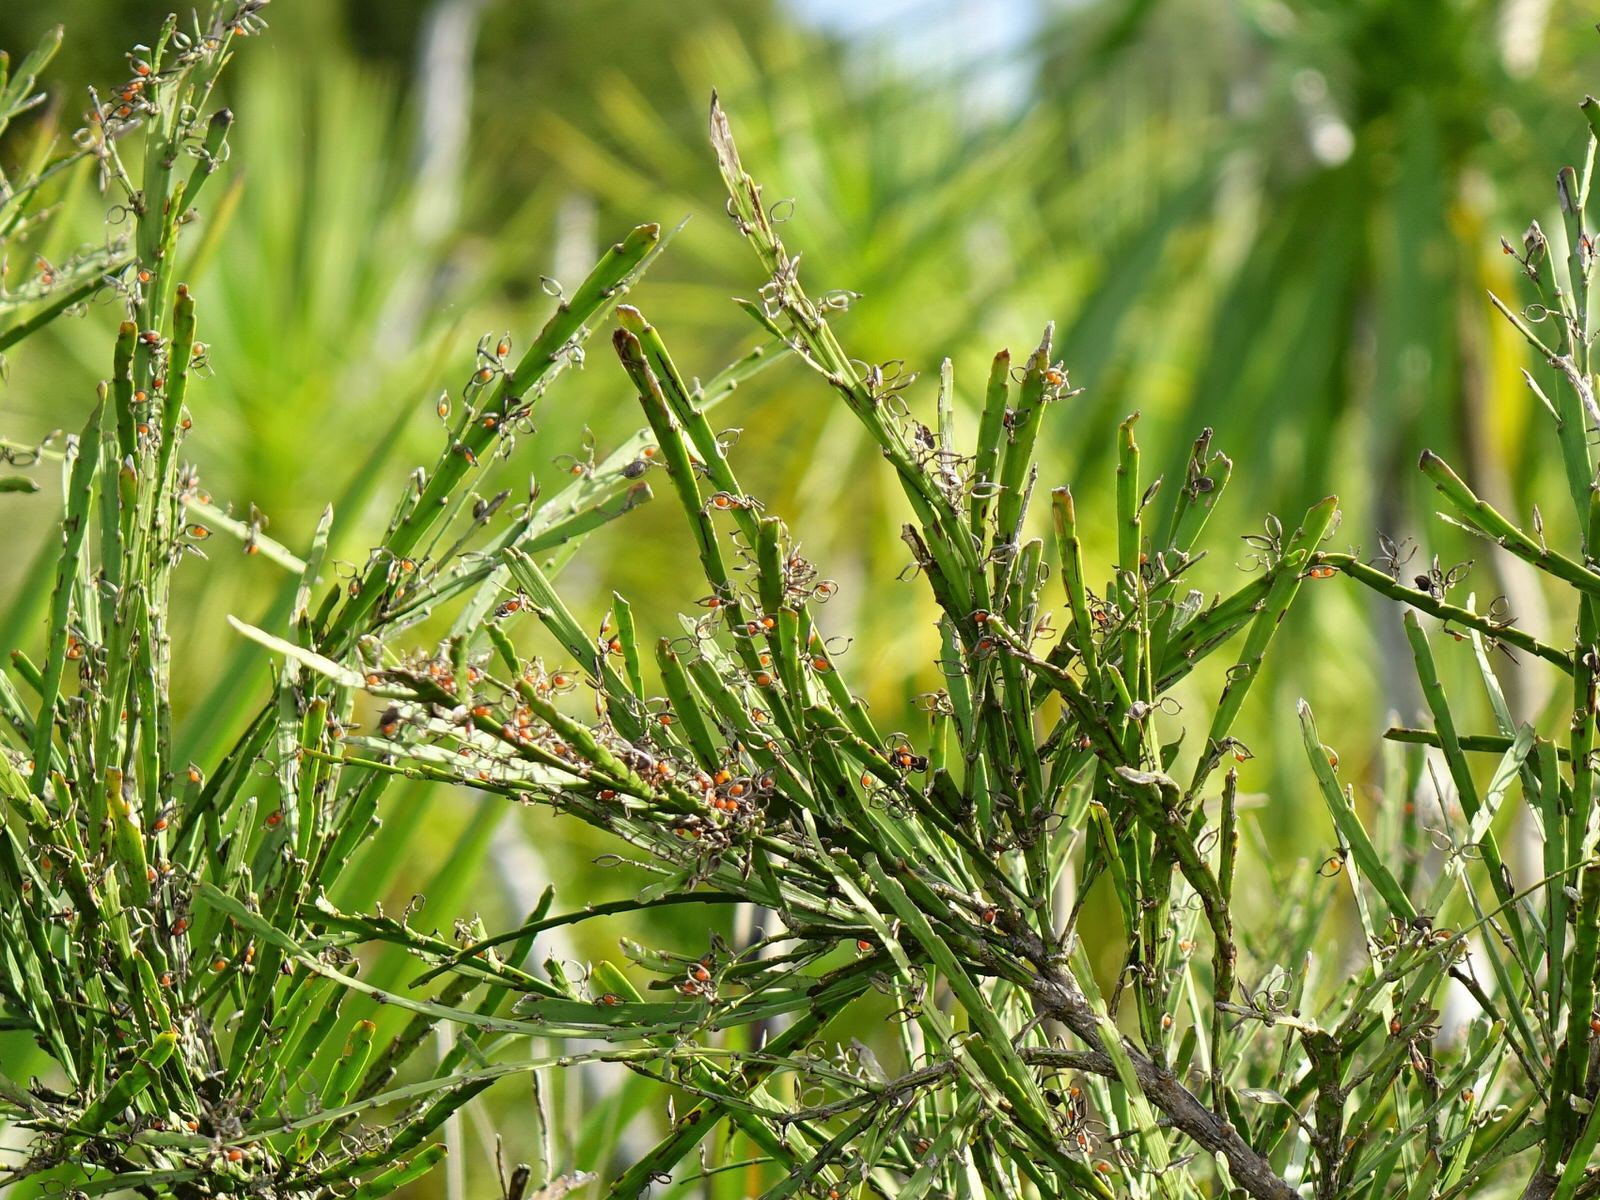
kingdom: Plantae
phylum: Tracheophyta
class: Magnoliopsida
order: Fabales
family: Fabaceae
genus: Carmichaelia
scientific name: Carmichaelia australis
